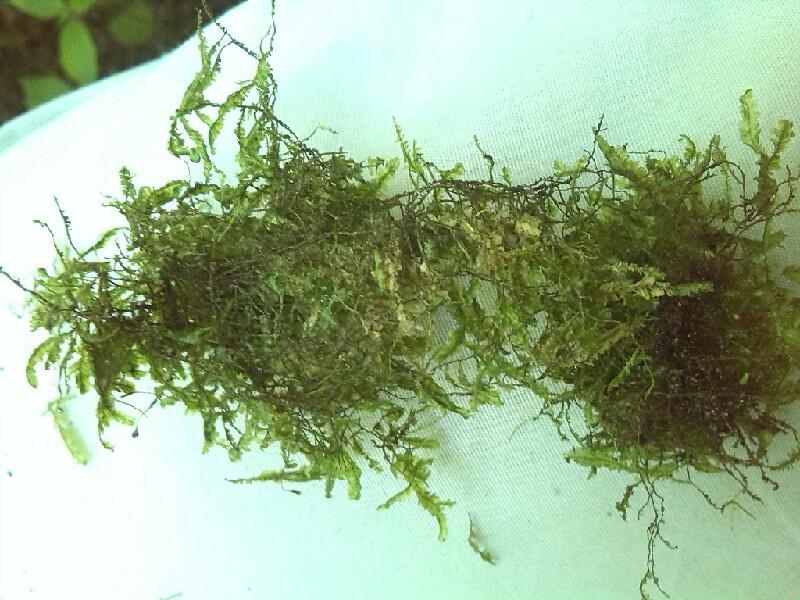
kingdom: Plantae
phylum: Bryophyta
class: Bryopsida
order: Hypnales
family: Neckeraceae
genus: Homalia
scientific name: Homalia trichomanoides
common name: Lime homalia moss
